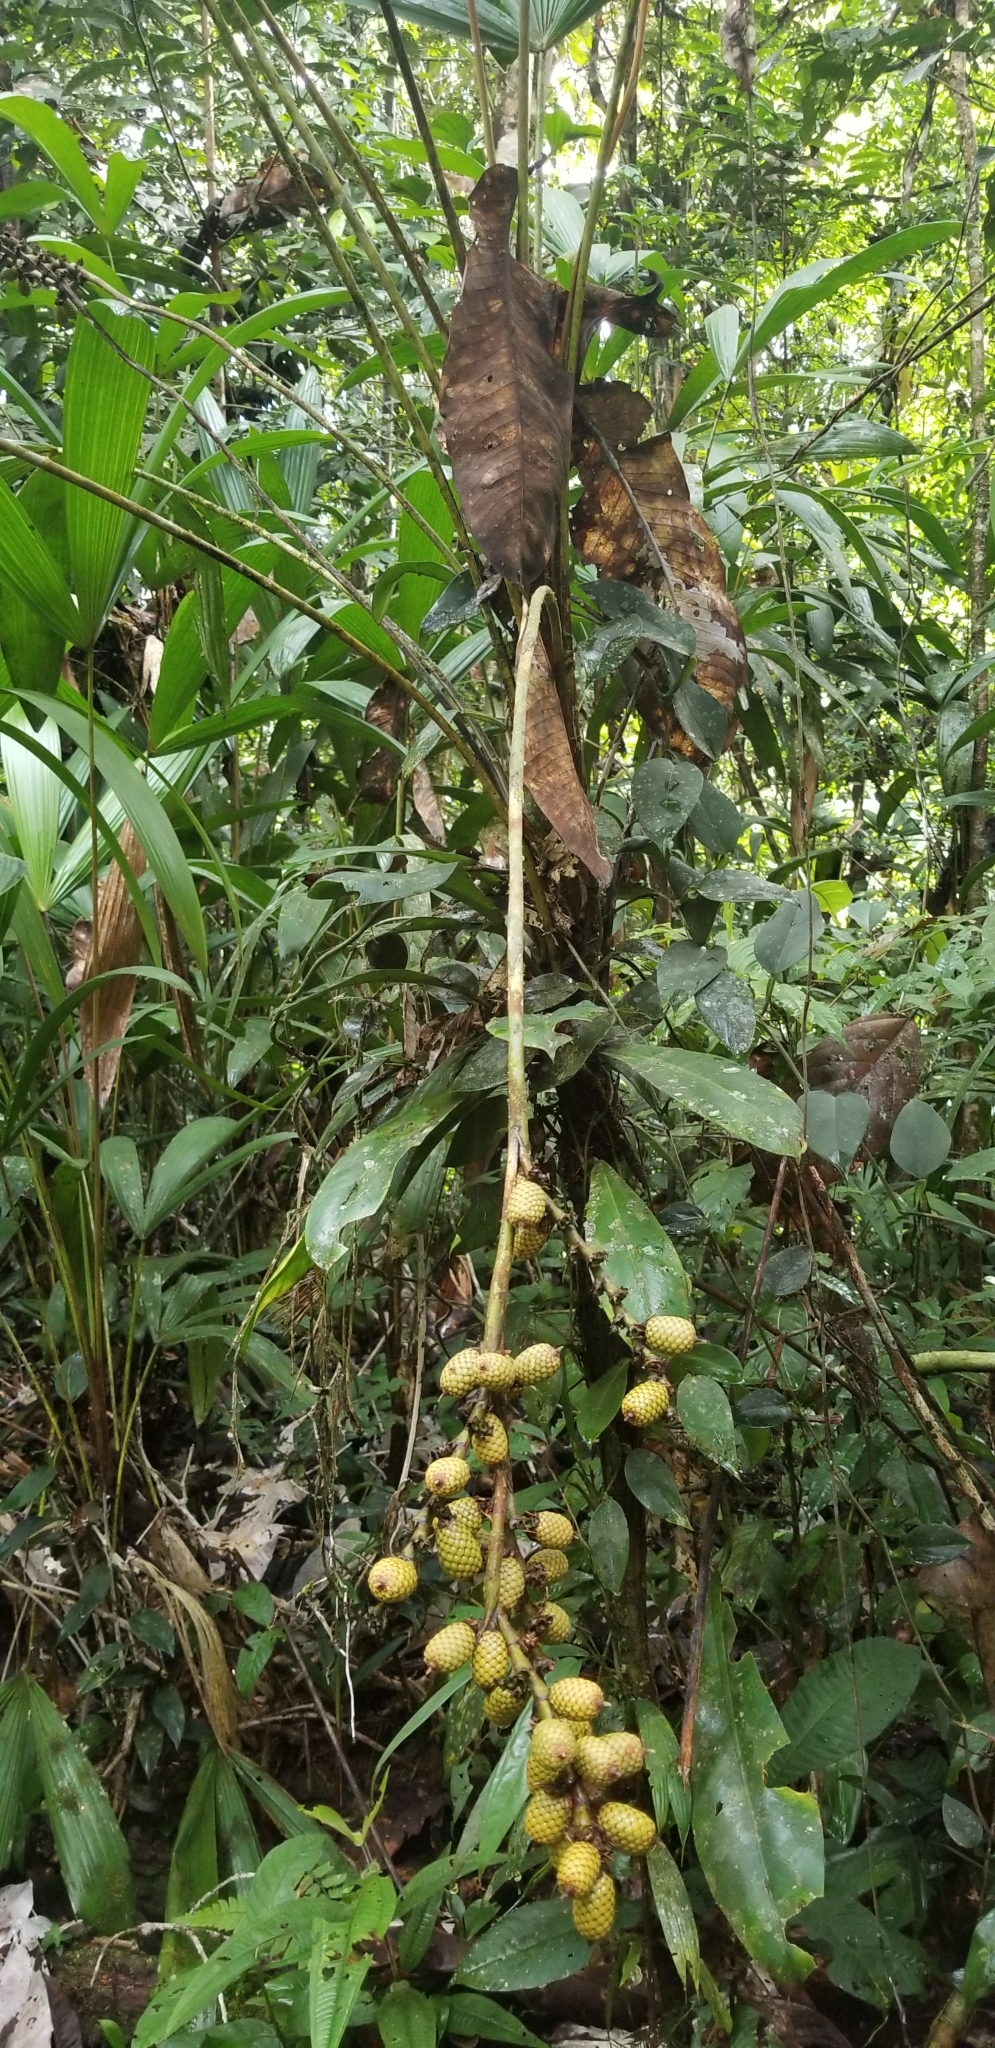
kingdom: Plantae
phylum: Tracheophyta
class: Liliopsida
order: Arecales
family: Arecaceae
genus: Lepidocaryum
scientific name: Lepidocaryum tenue
